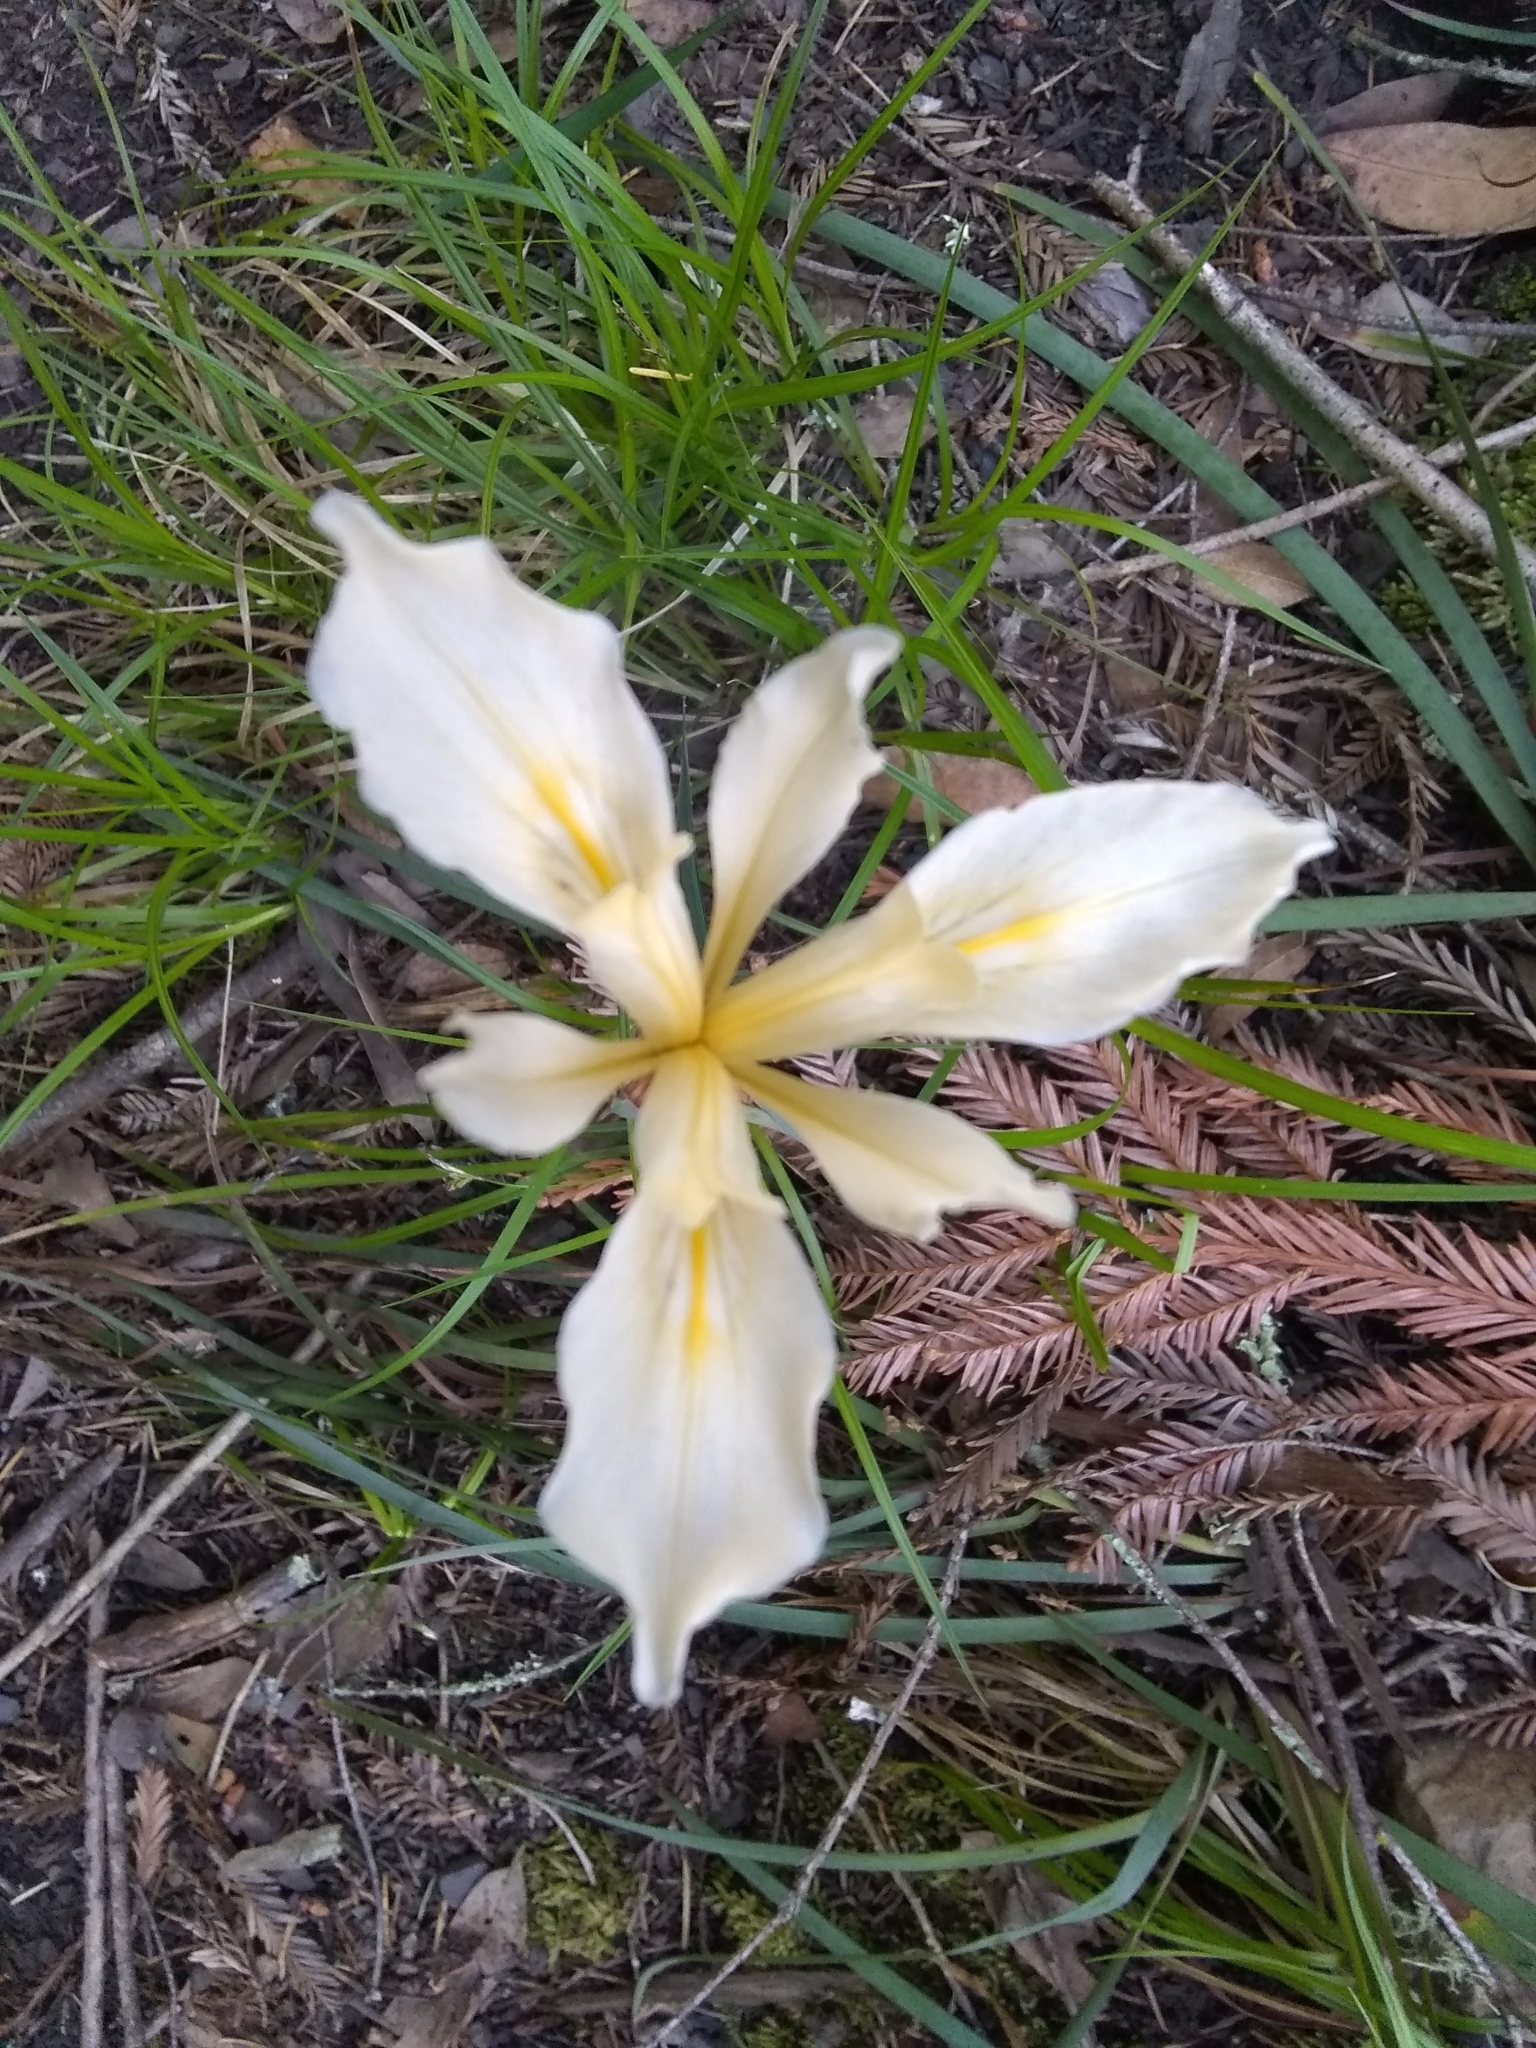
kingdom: Plantae
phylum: Tracheophyta
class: Liliopsida
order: Asparagales
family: Iridaceae
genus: Iris
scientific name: Iris fernaldii
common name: Fernald's iris
